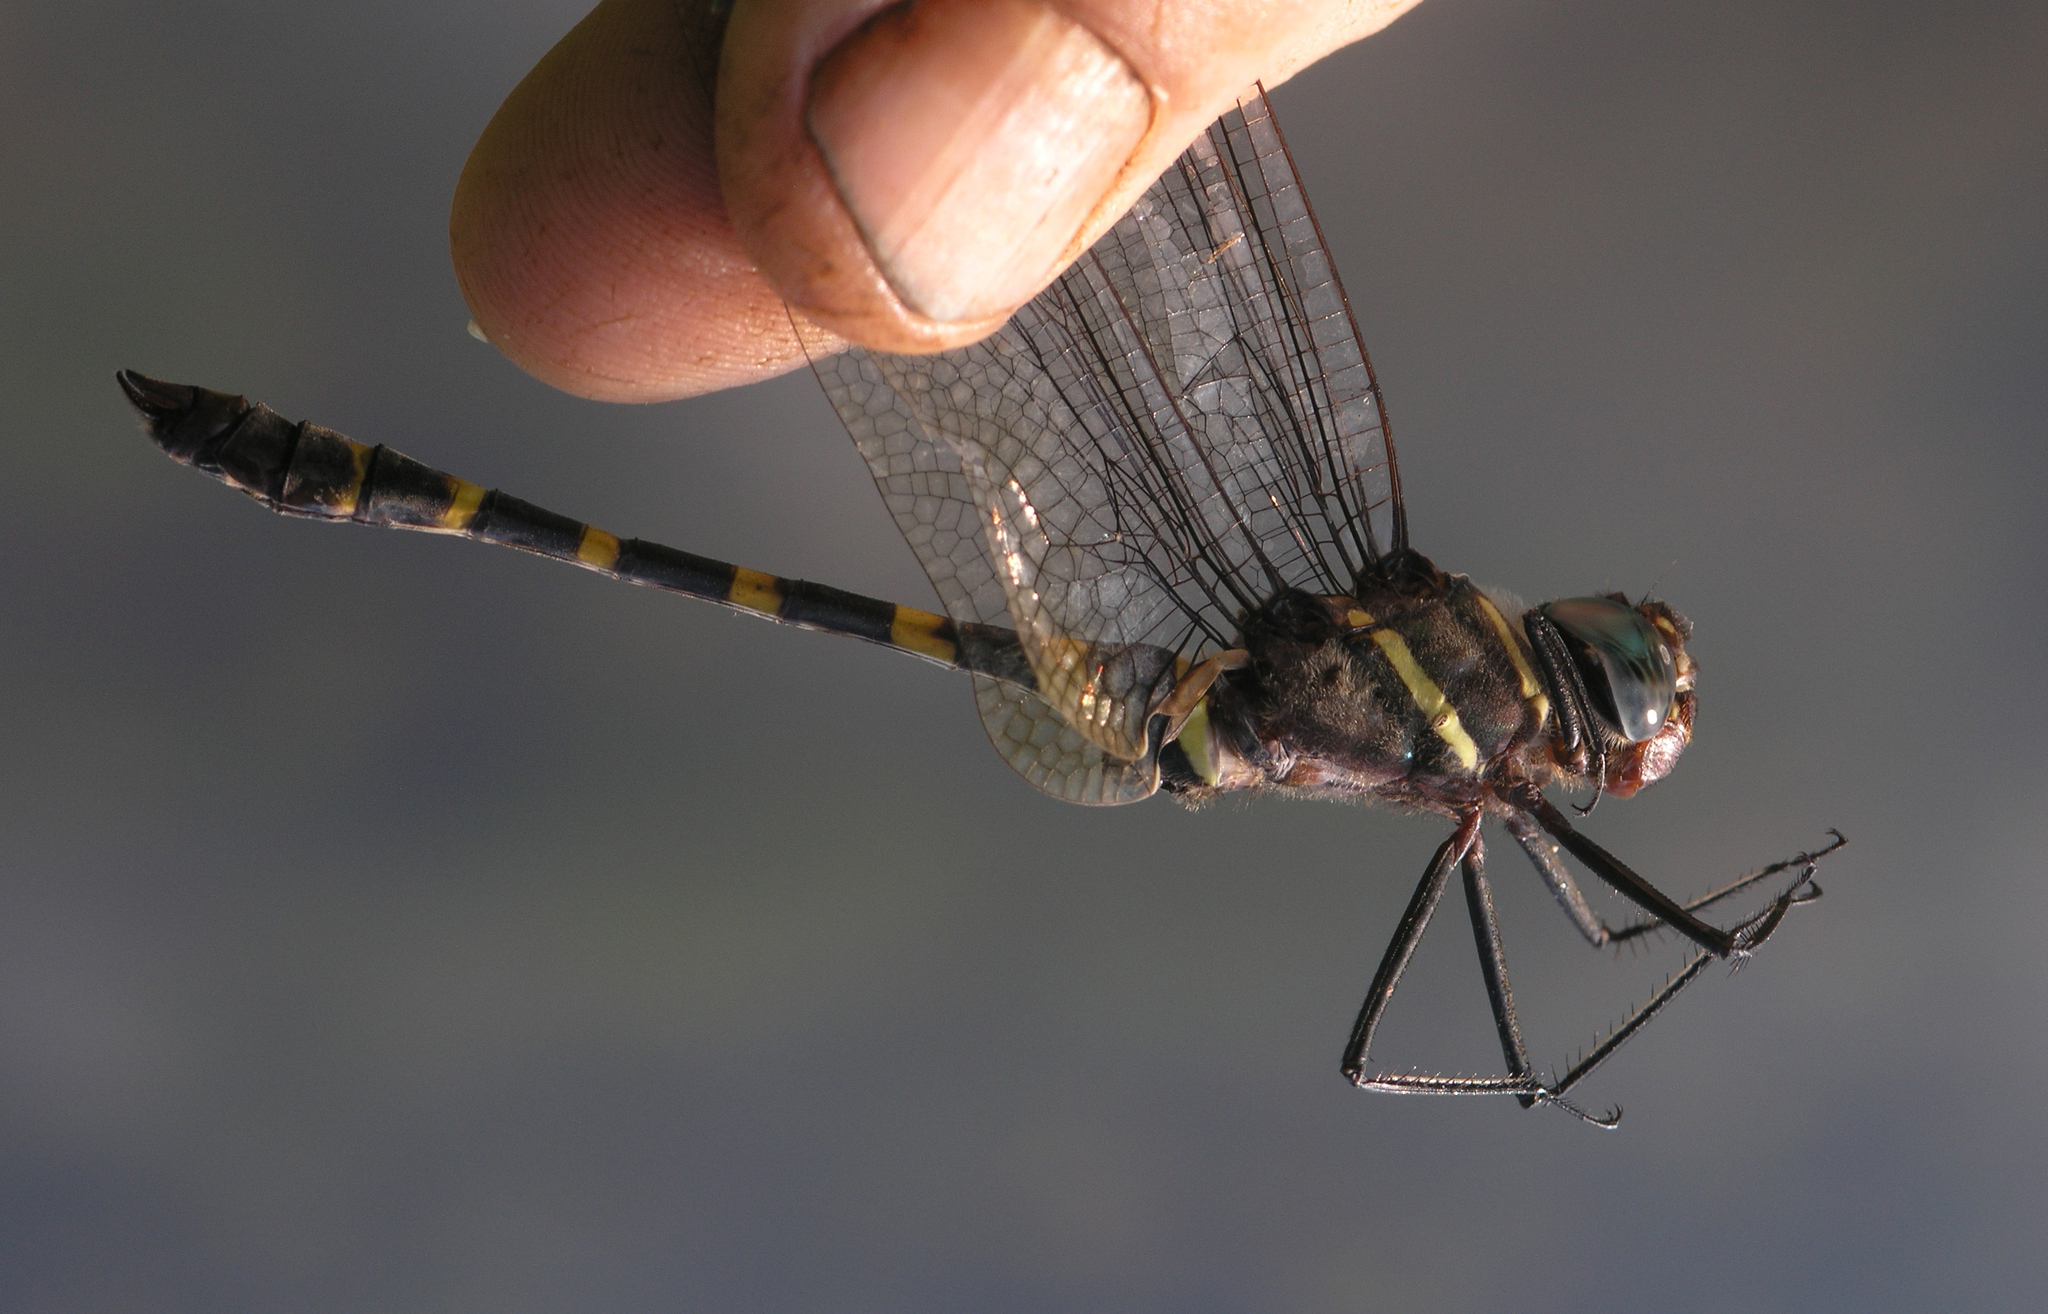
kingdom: Animalia
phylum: Arthropoda
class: Insecta
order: Odonata
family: Macromiidae
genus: Epophthalmia
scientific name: Epophthalmia frontalis
